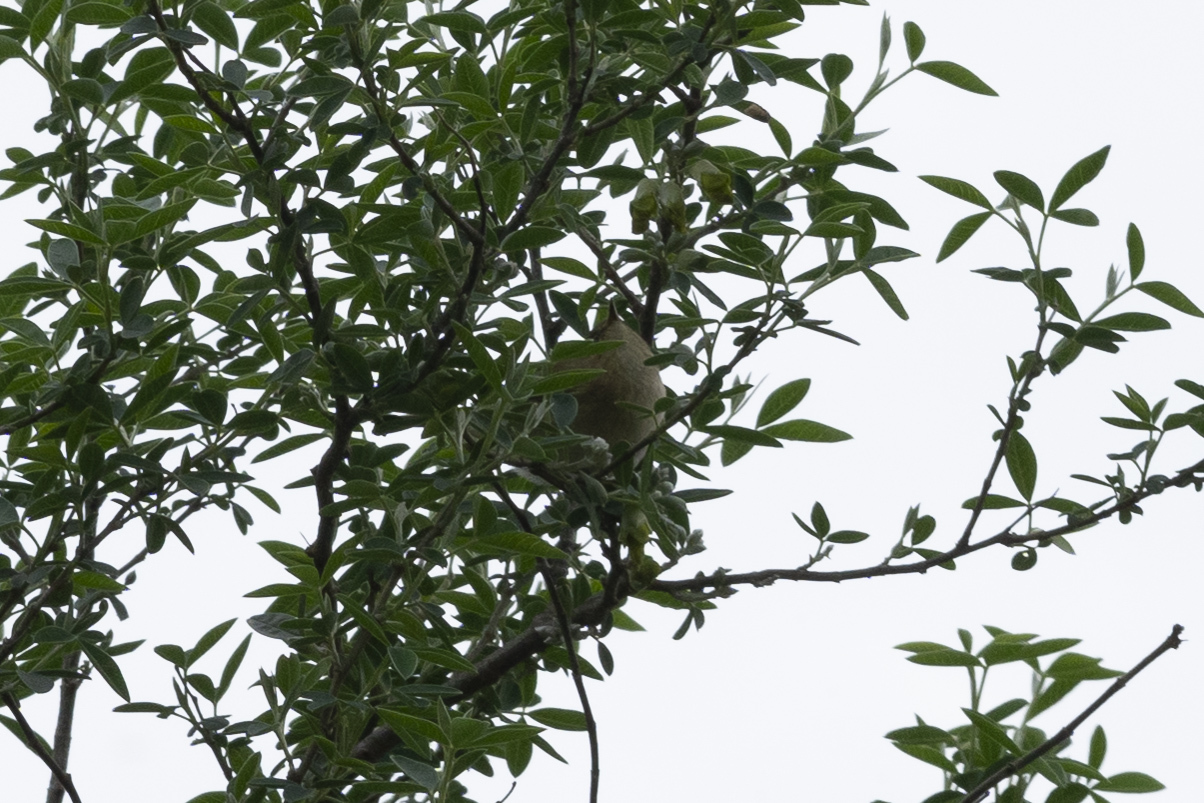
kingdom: Animalia
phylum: Chordata
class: Aves
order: Passeriformes
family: Phylloscopidae
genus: Phylloscopus
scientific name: Phylloscopus collybita
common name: Common chiffchaff
